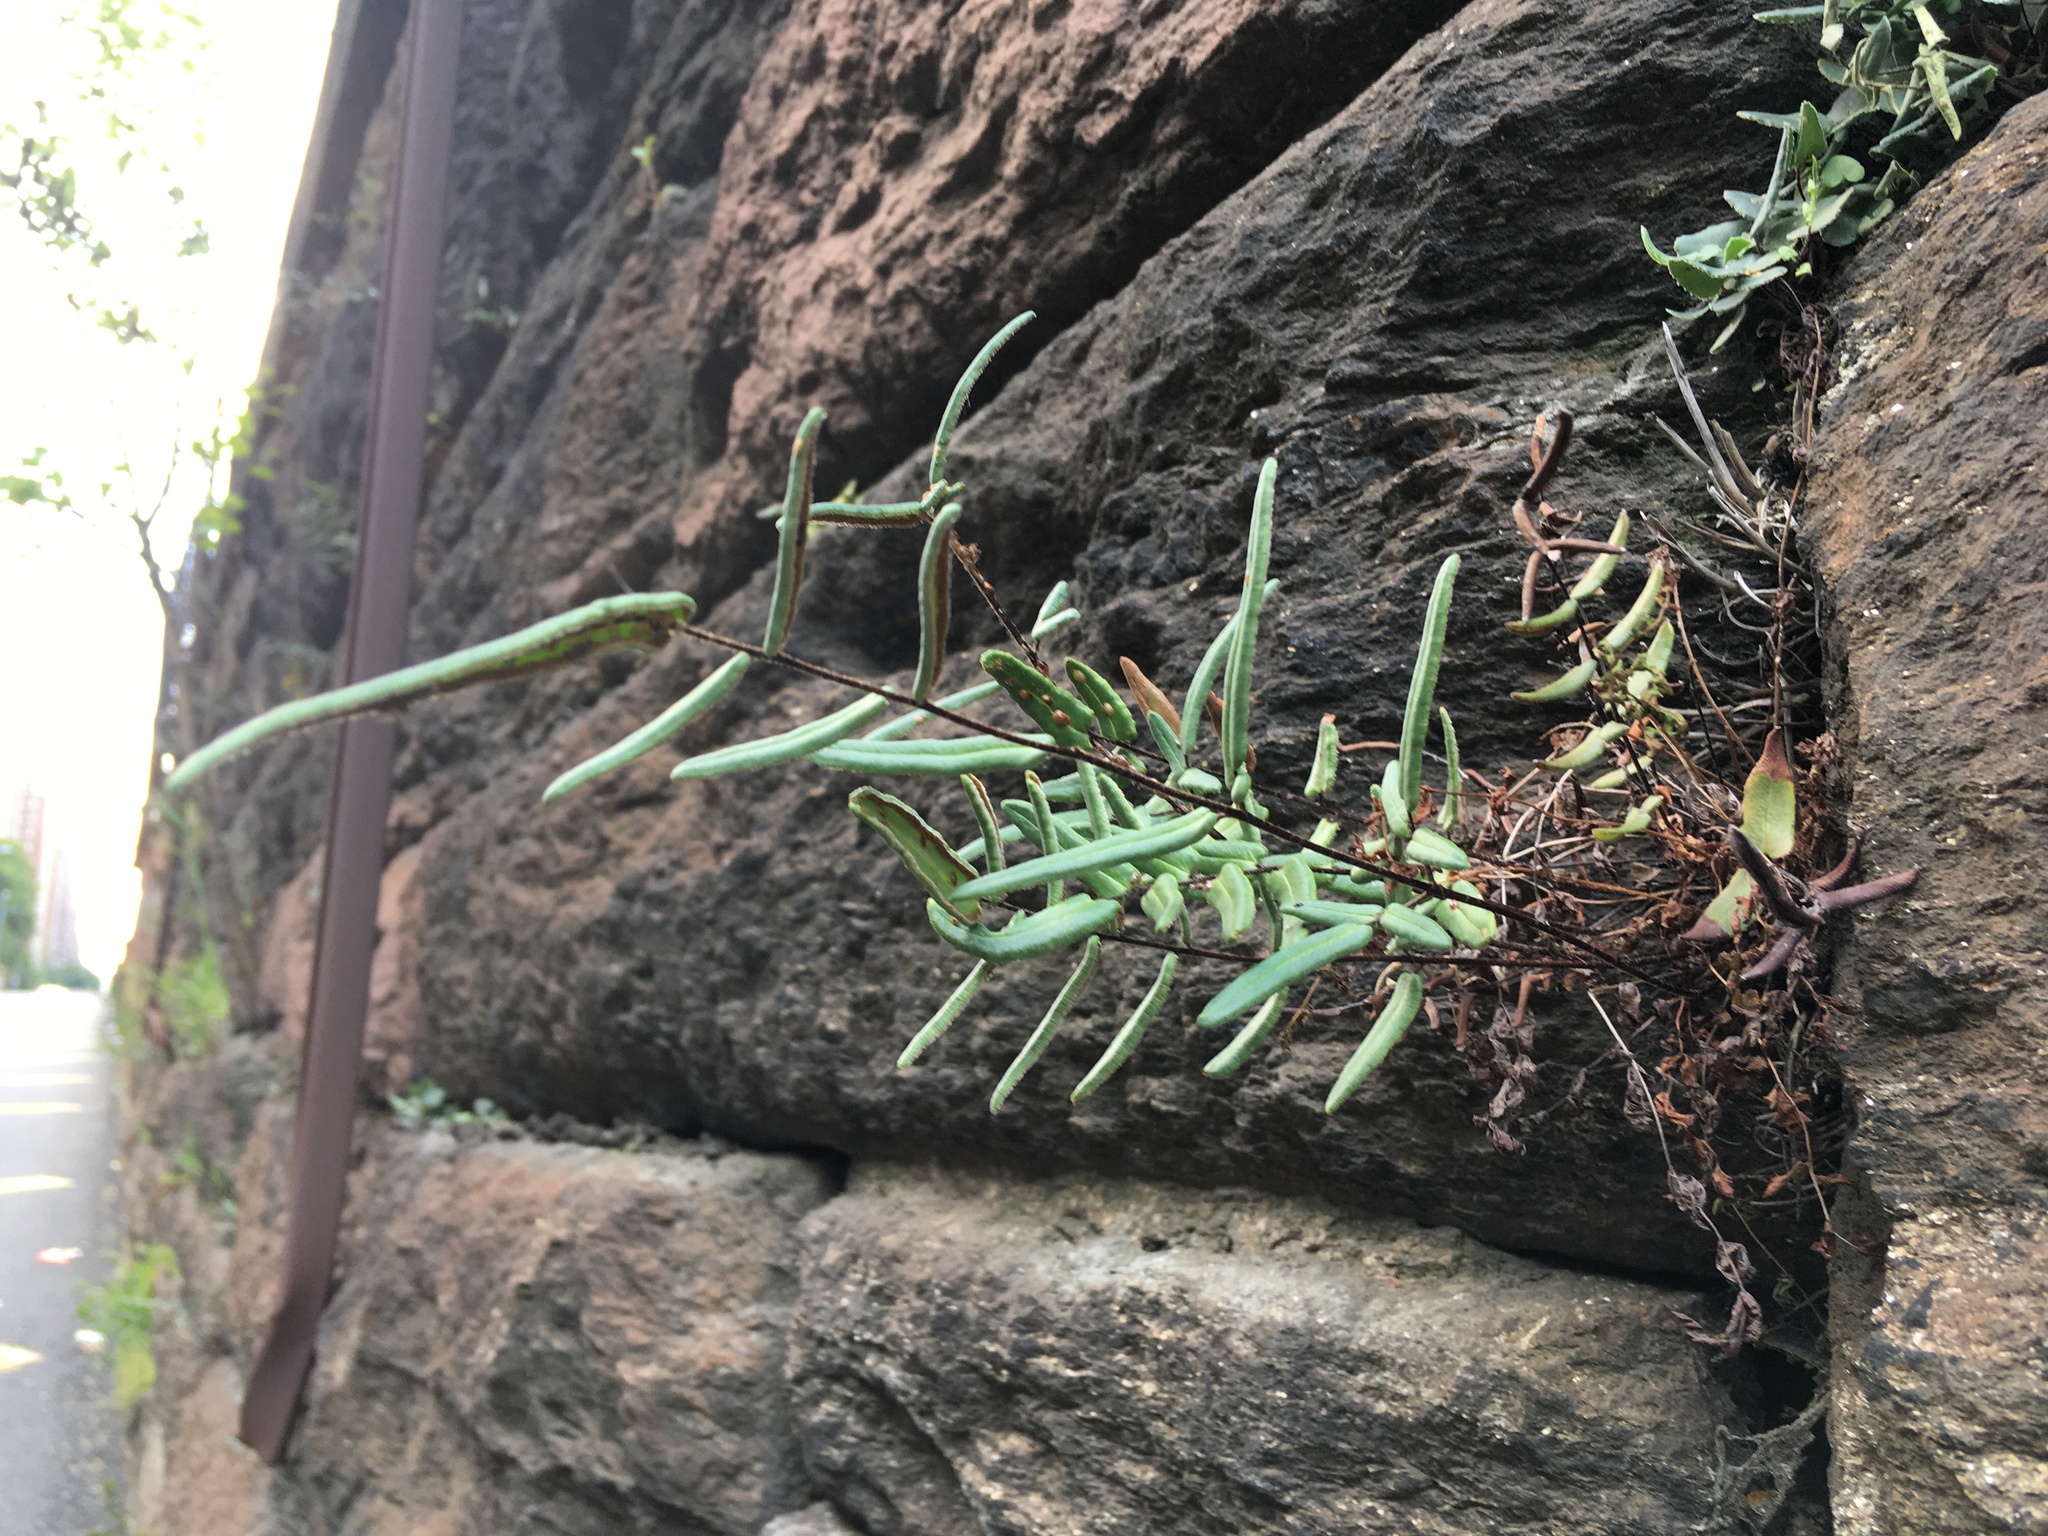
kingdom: Plantae
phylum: Tracheophyta
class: Polypodiopsida
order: Polypodiales
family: Pteridaceae
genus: Pellaea
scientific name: Pellaea atropurpurea
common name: Hairy cliffbrake
